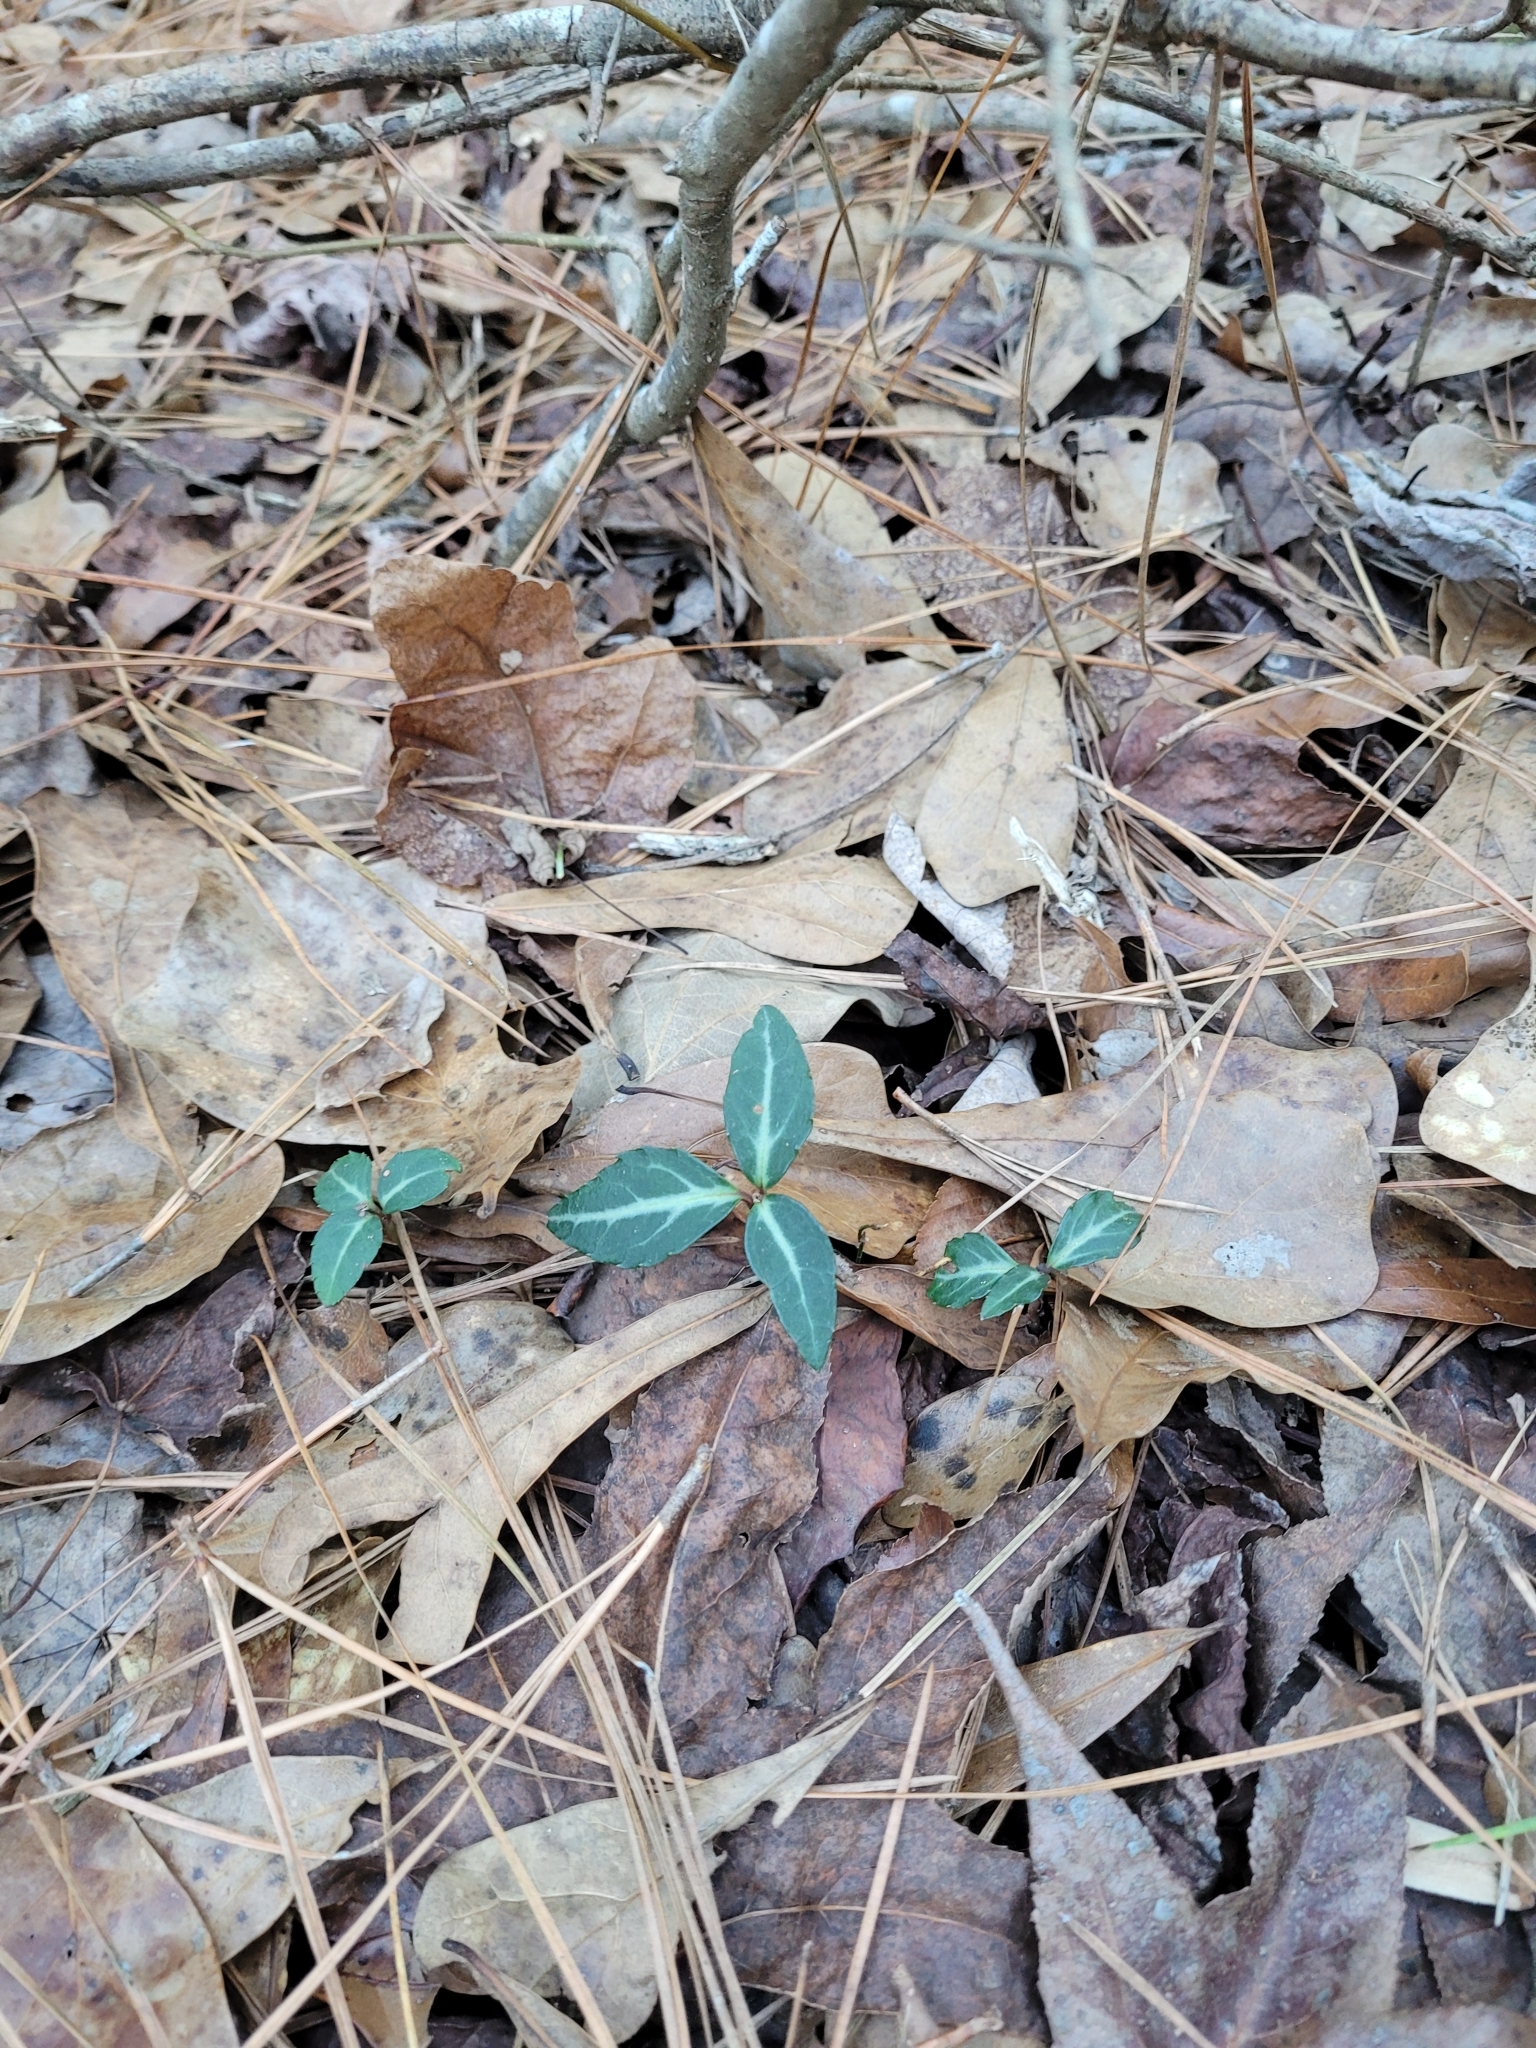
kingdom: Plantae
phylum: Tracheophyta
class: Magnoliopsida
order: Ericales
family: Ericaceae
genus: Chimaphila
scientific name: Chimaphila maculata
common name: Spotted pipsissewa
